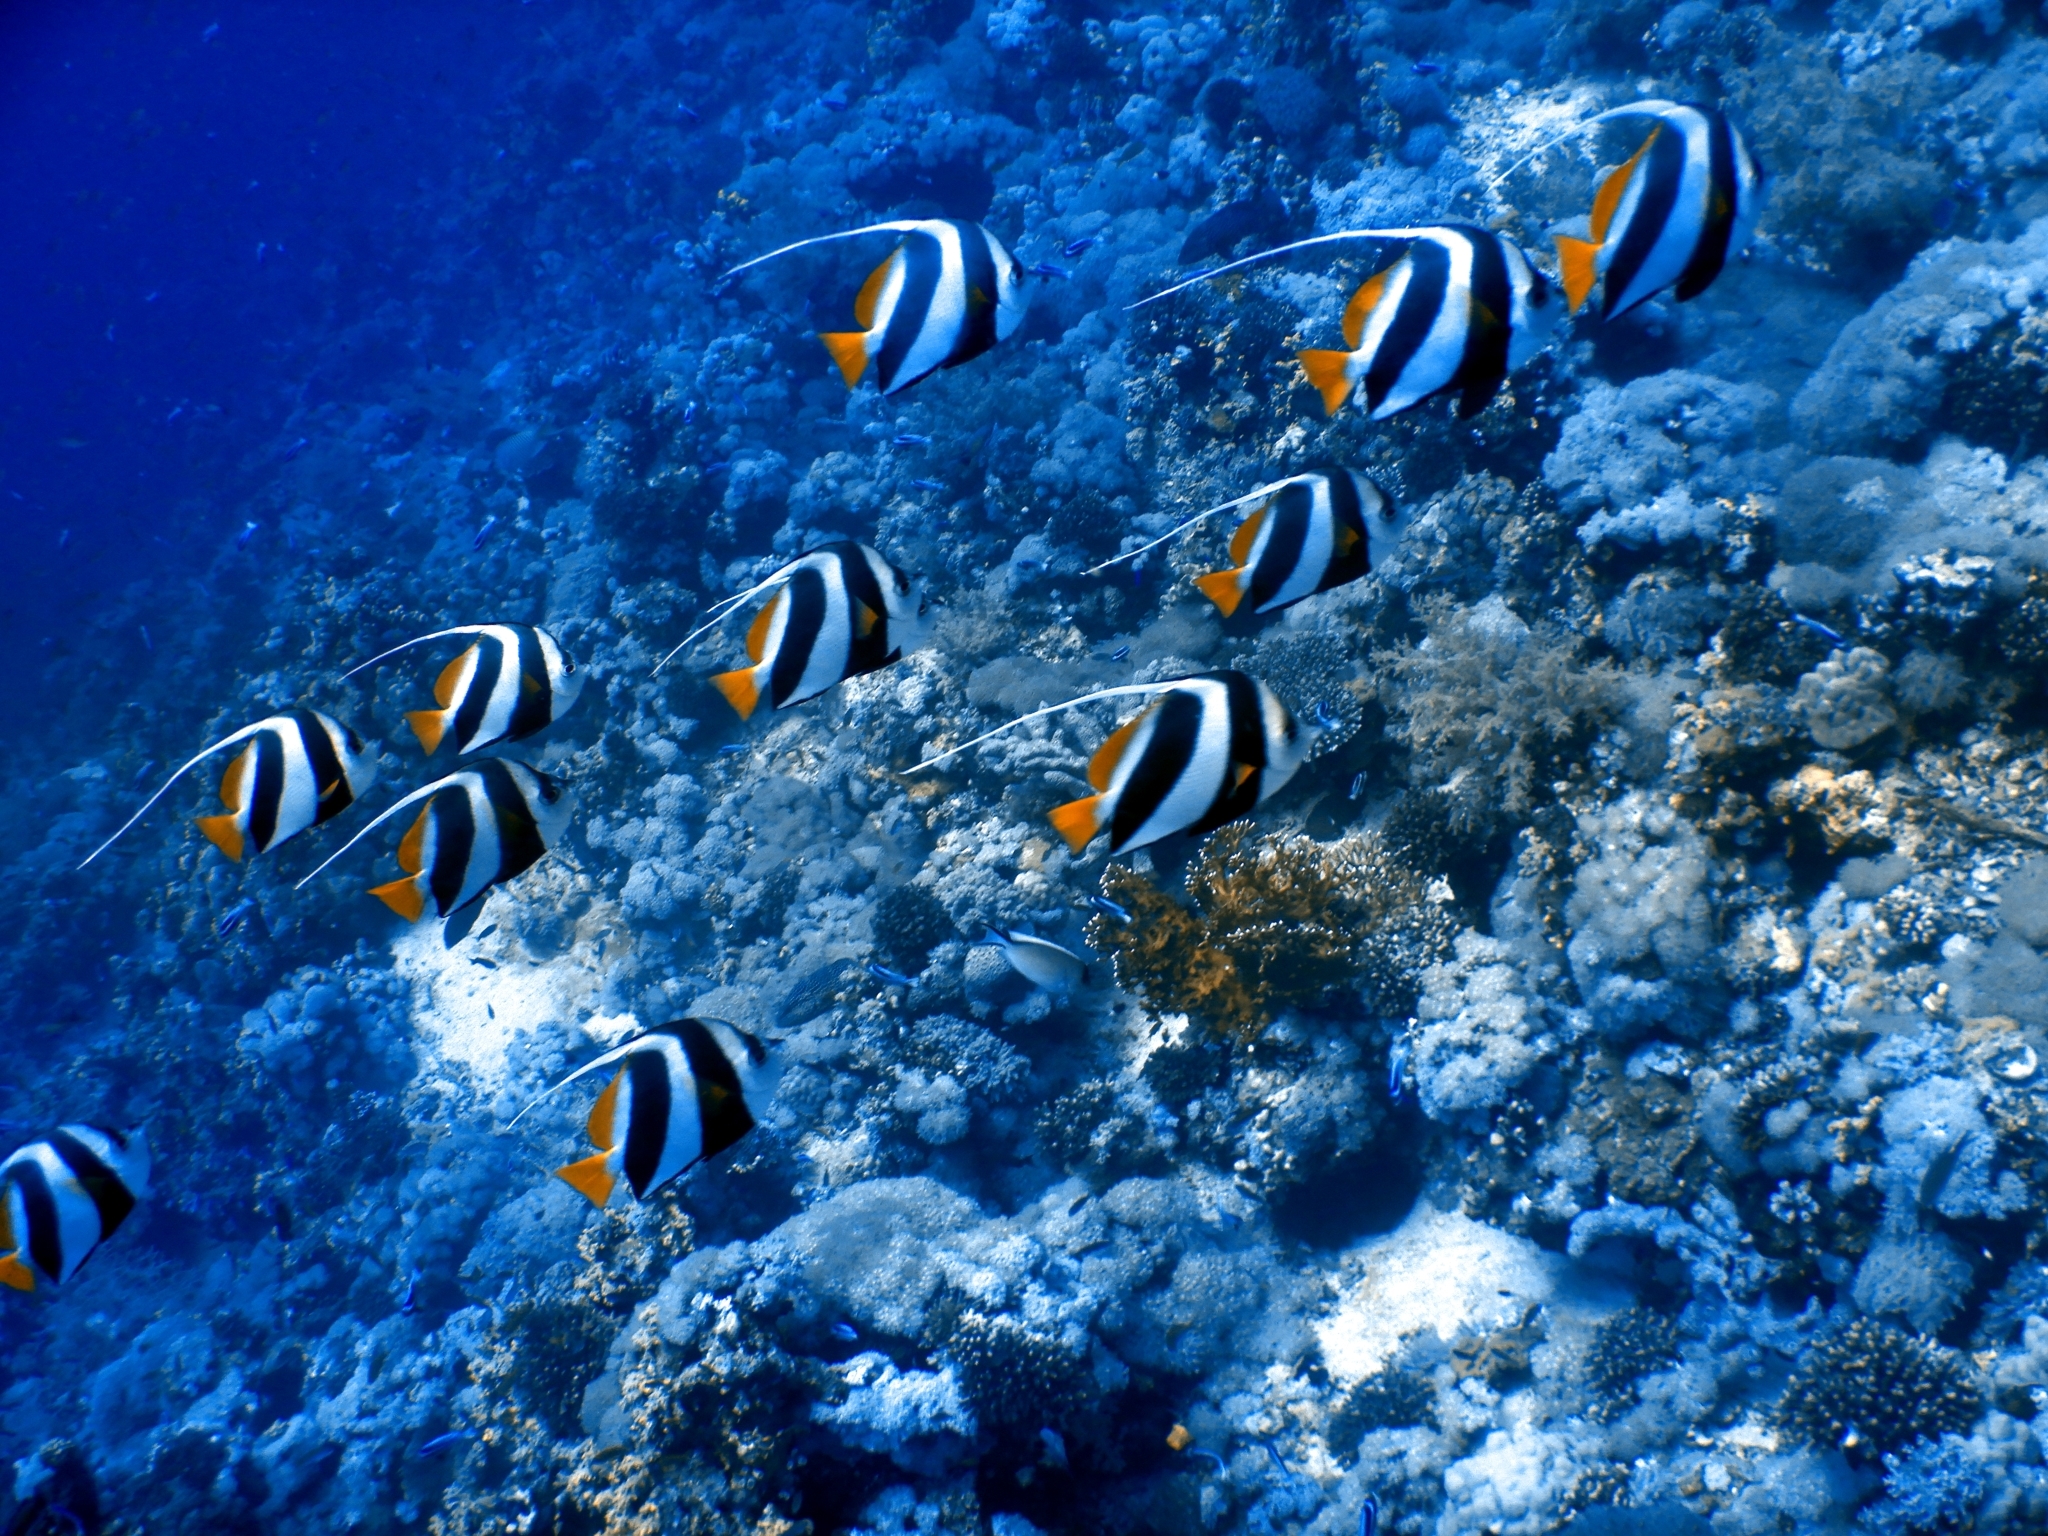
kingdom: Animalia
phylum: Chordata
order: Perciformes
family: Chaetodontidae
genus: Heniochus
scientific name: Heniochus diphreutes
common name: Pennantfish
